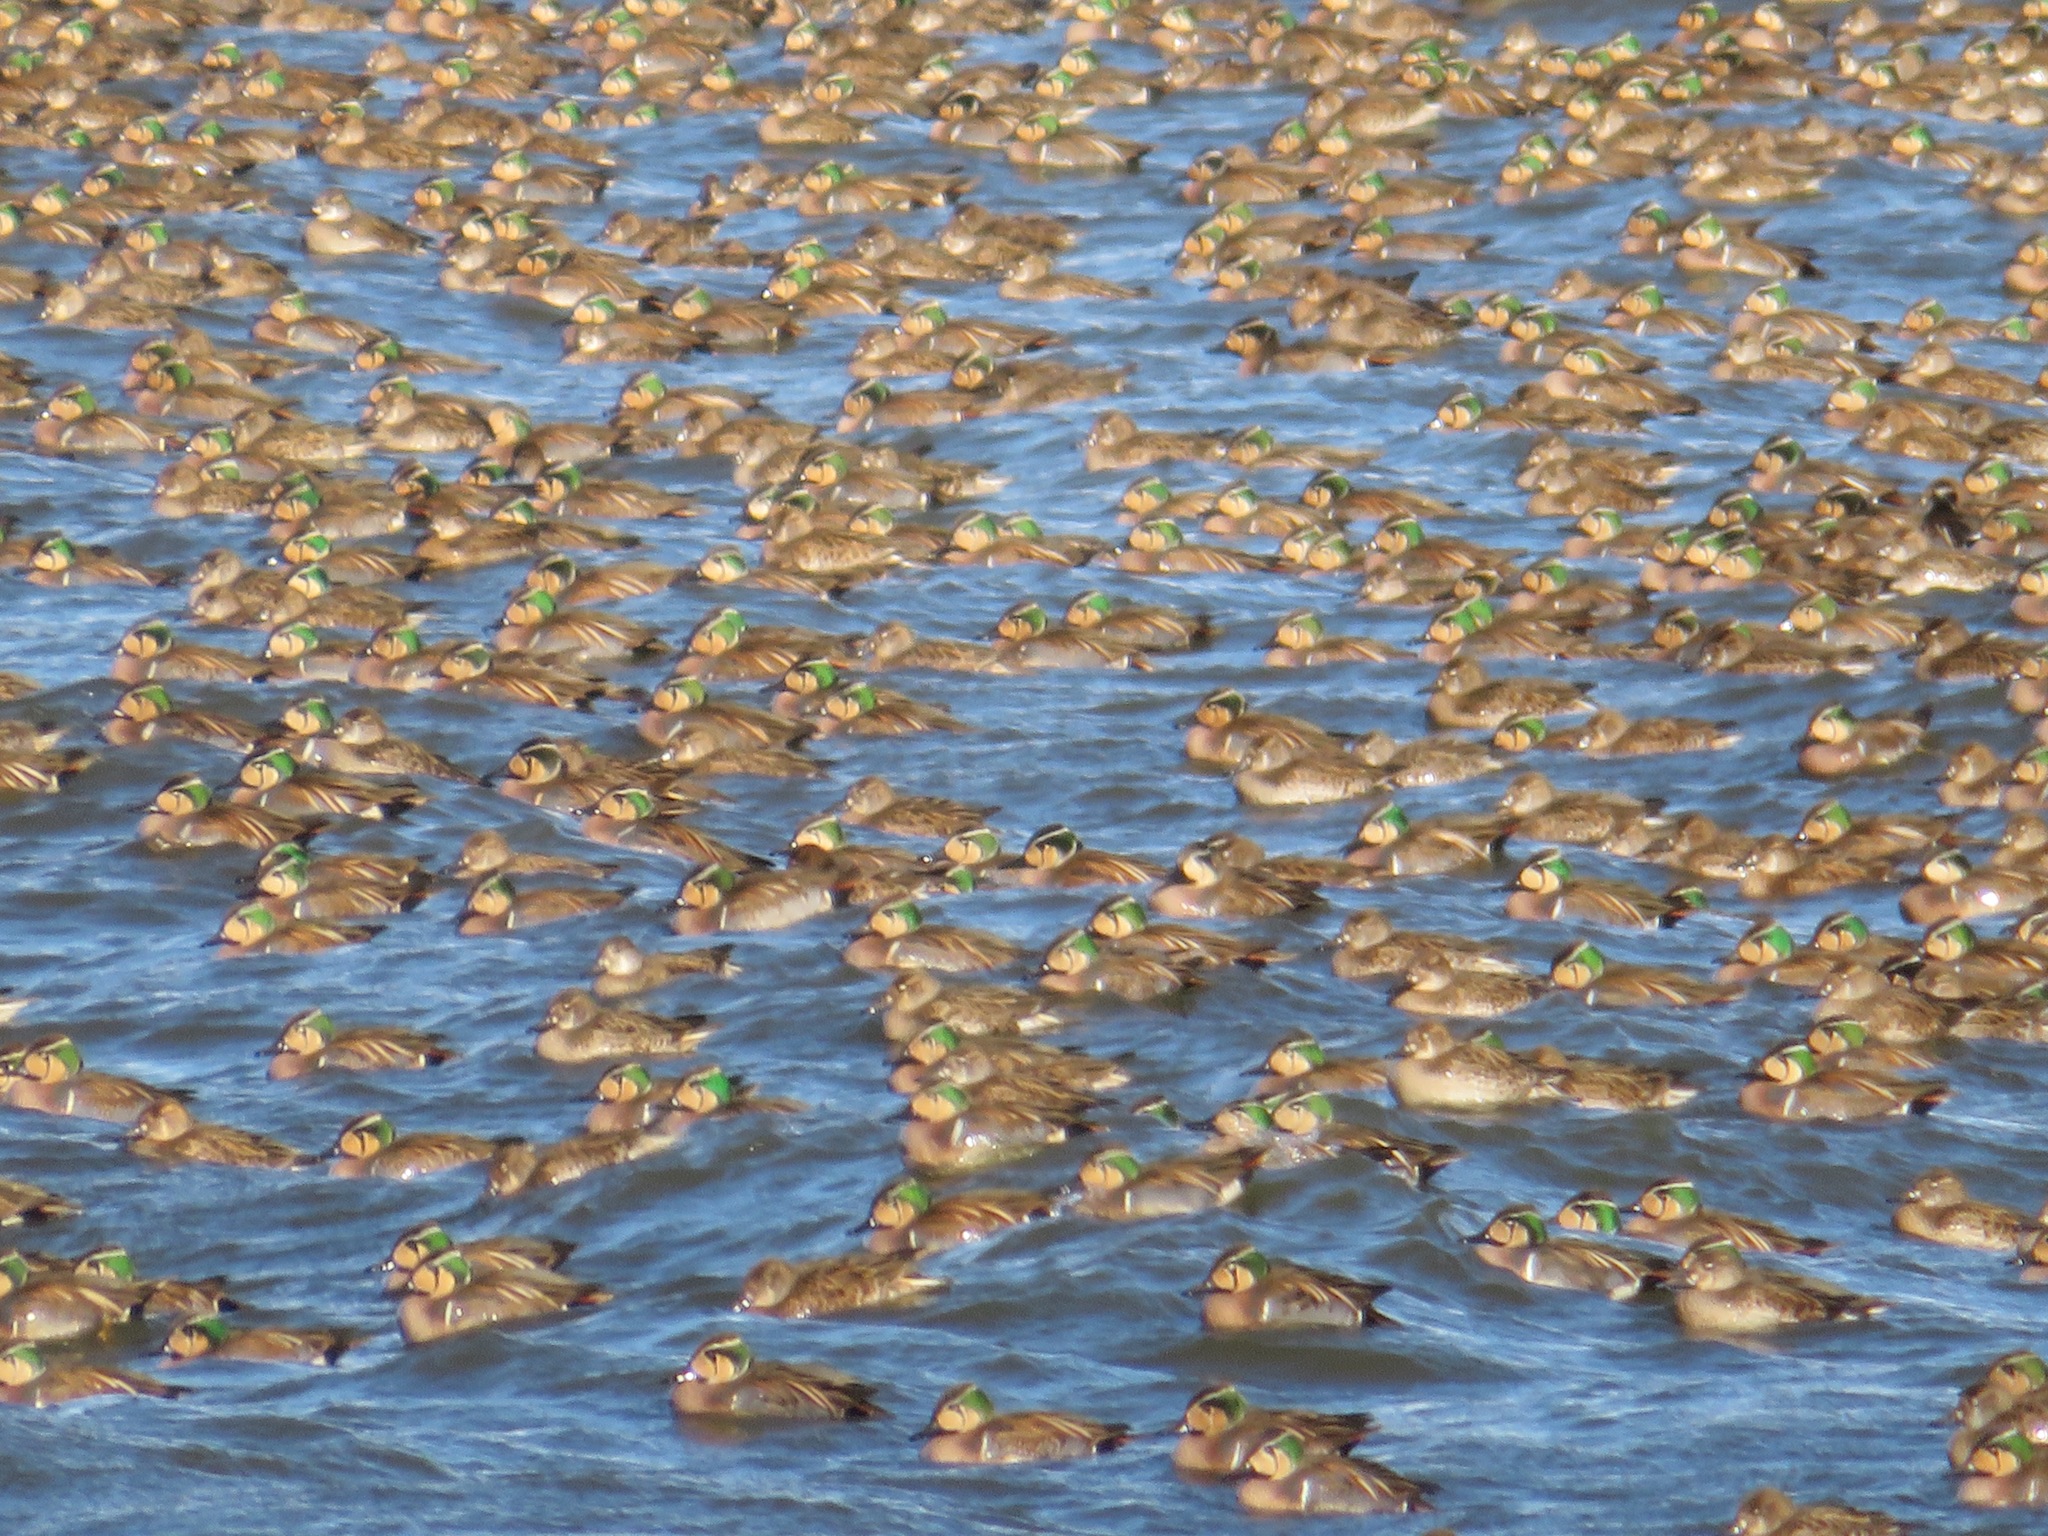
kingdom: Animalia
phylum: Chordata
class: Aves
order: Anseriformes
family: Anatidae
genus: Sibirionetta
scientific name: Sibirionetta formosa
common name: Baikal teal
